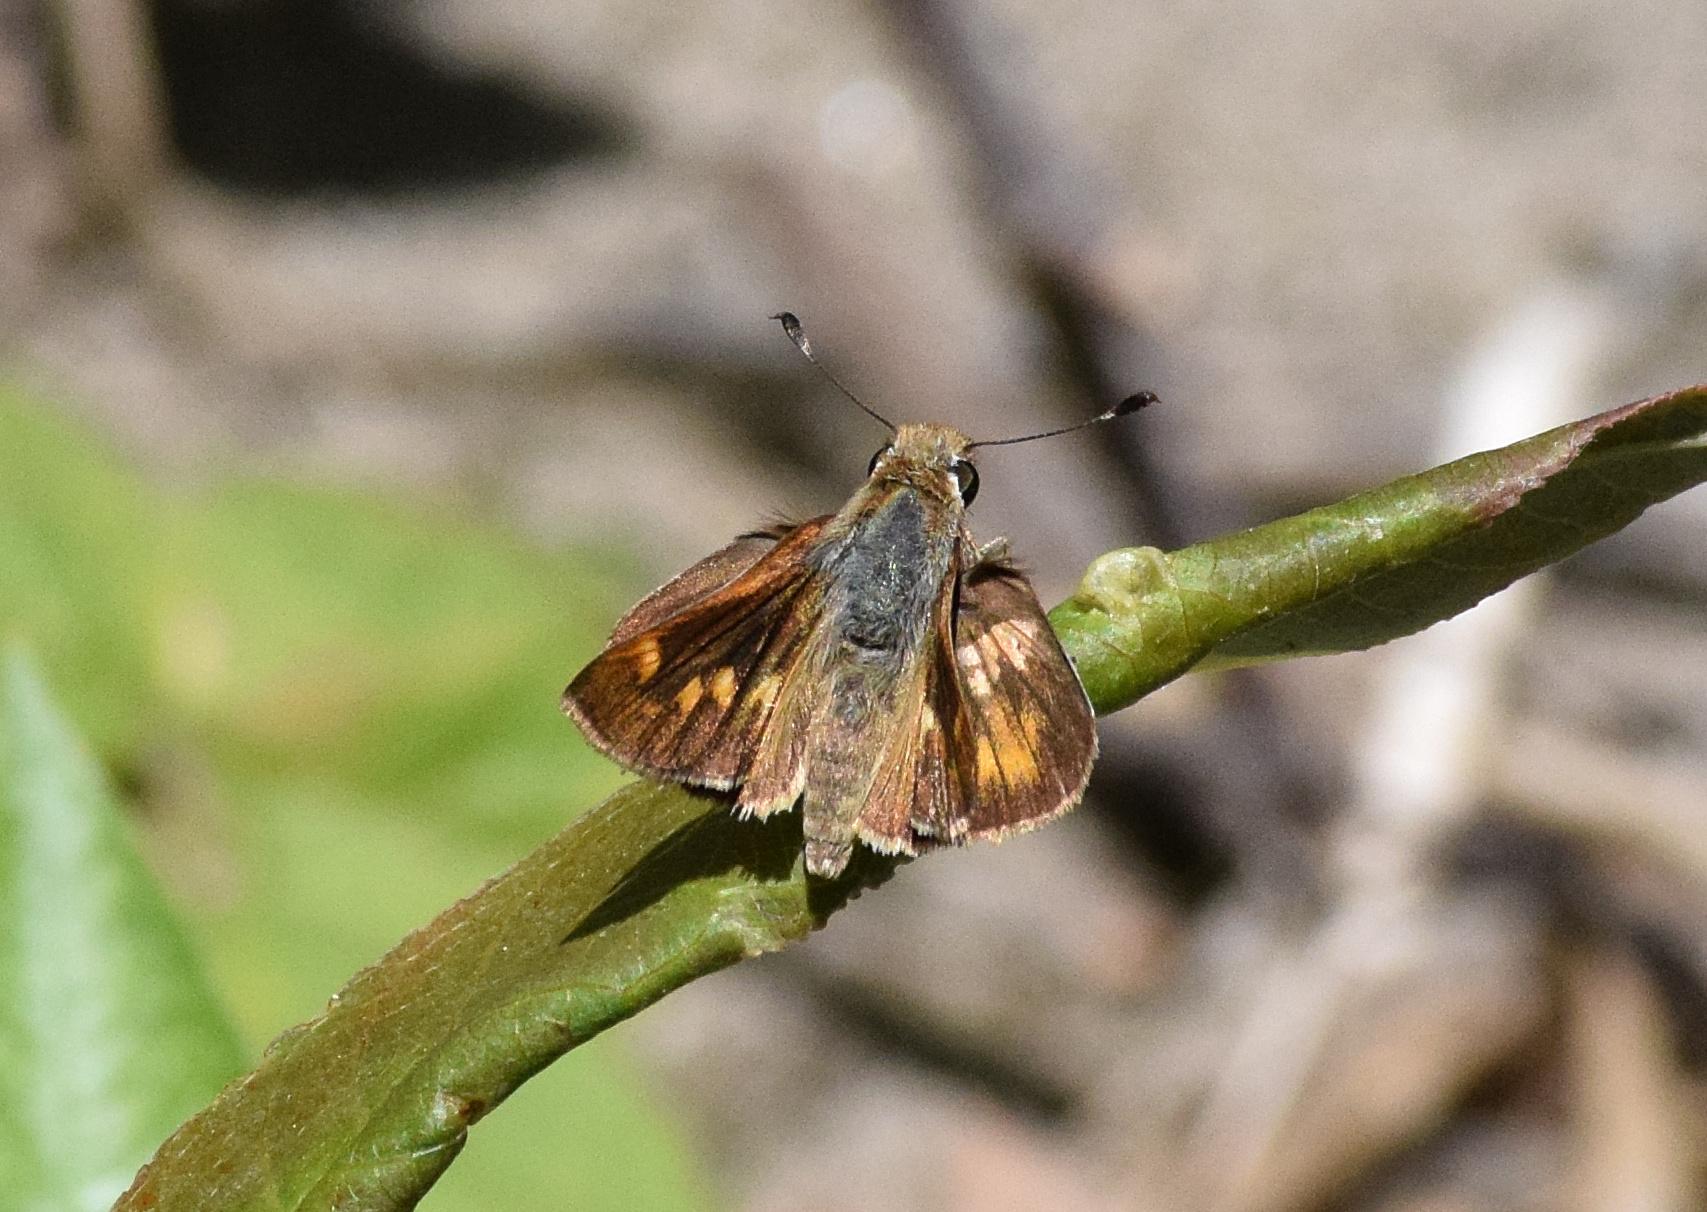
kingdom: Animalia
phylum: Arthropoda
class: Insecta
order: Lepidoptera
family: Hesperiidae
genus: Lon
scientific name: Lon melane
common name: Umber skipper
